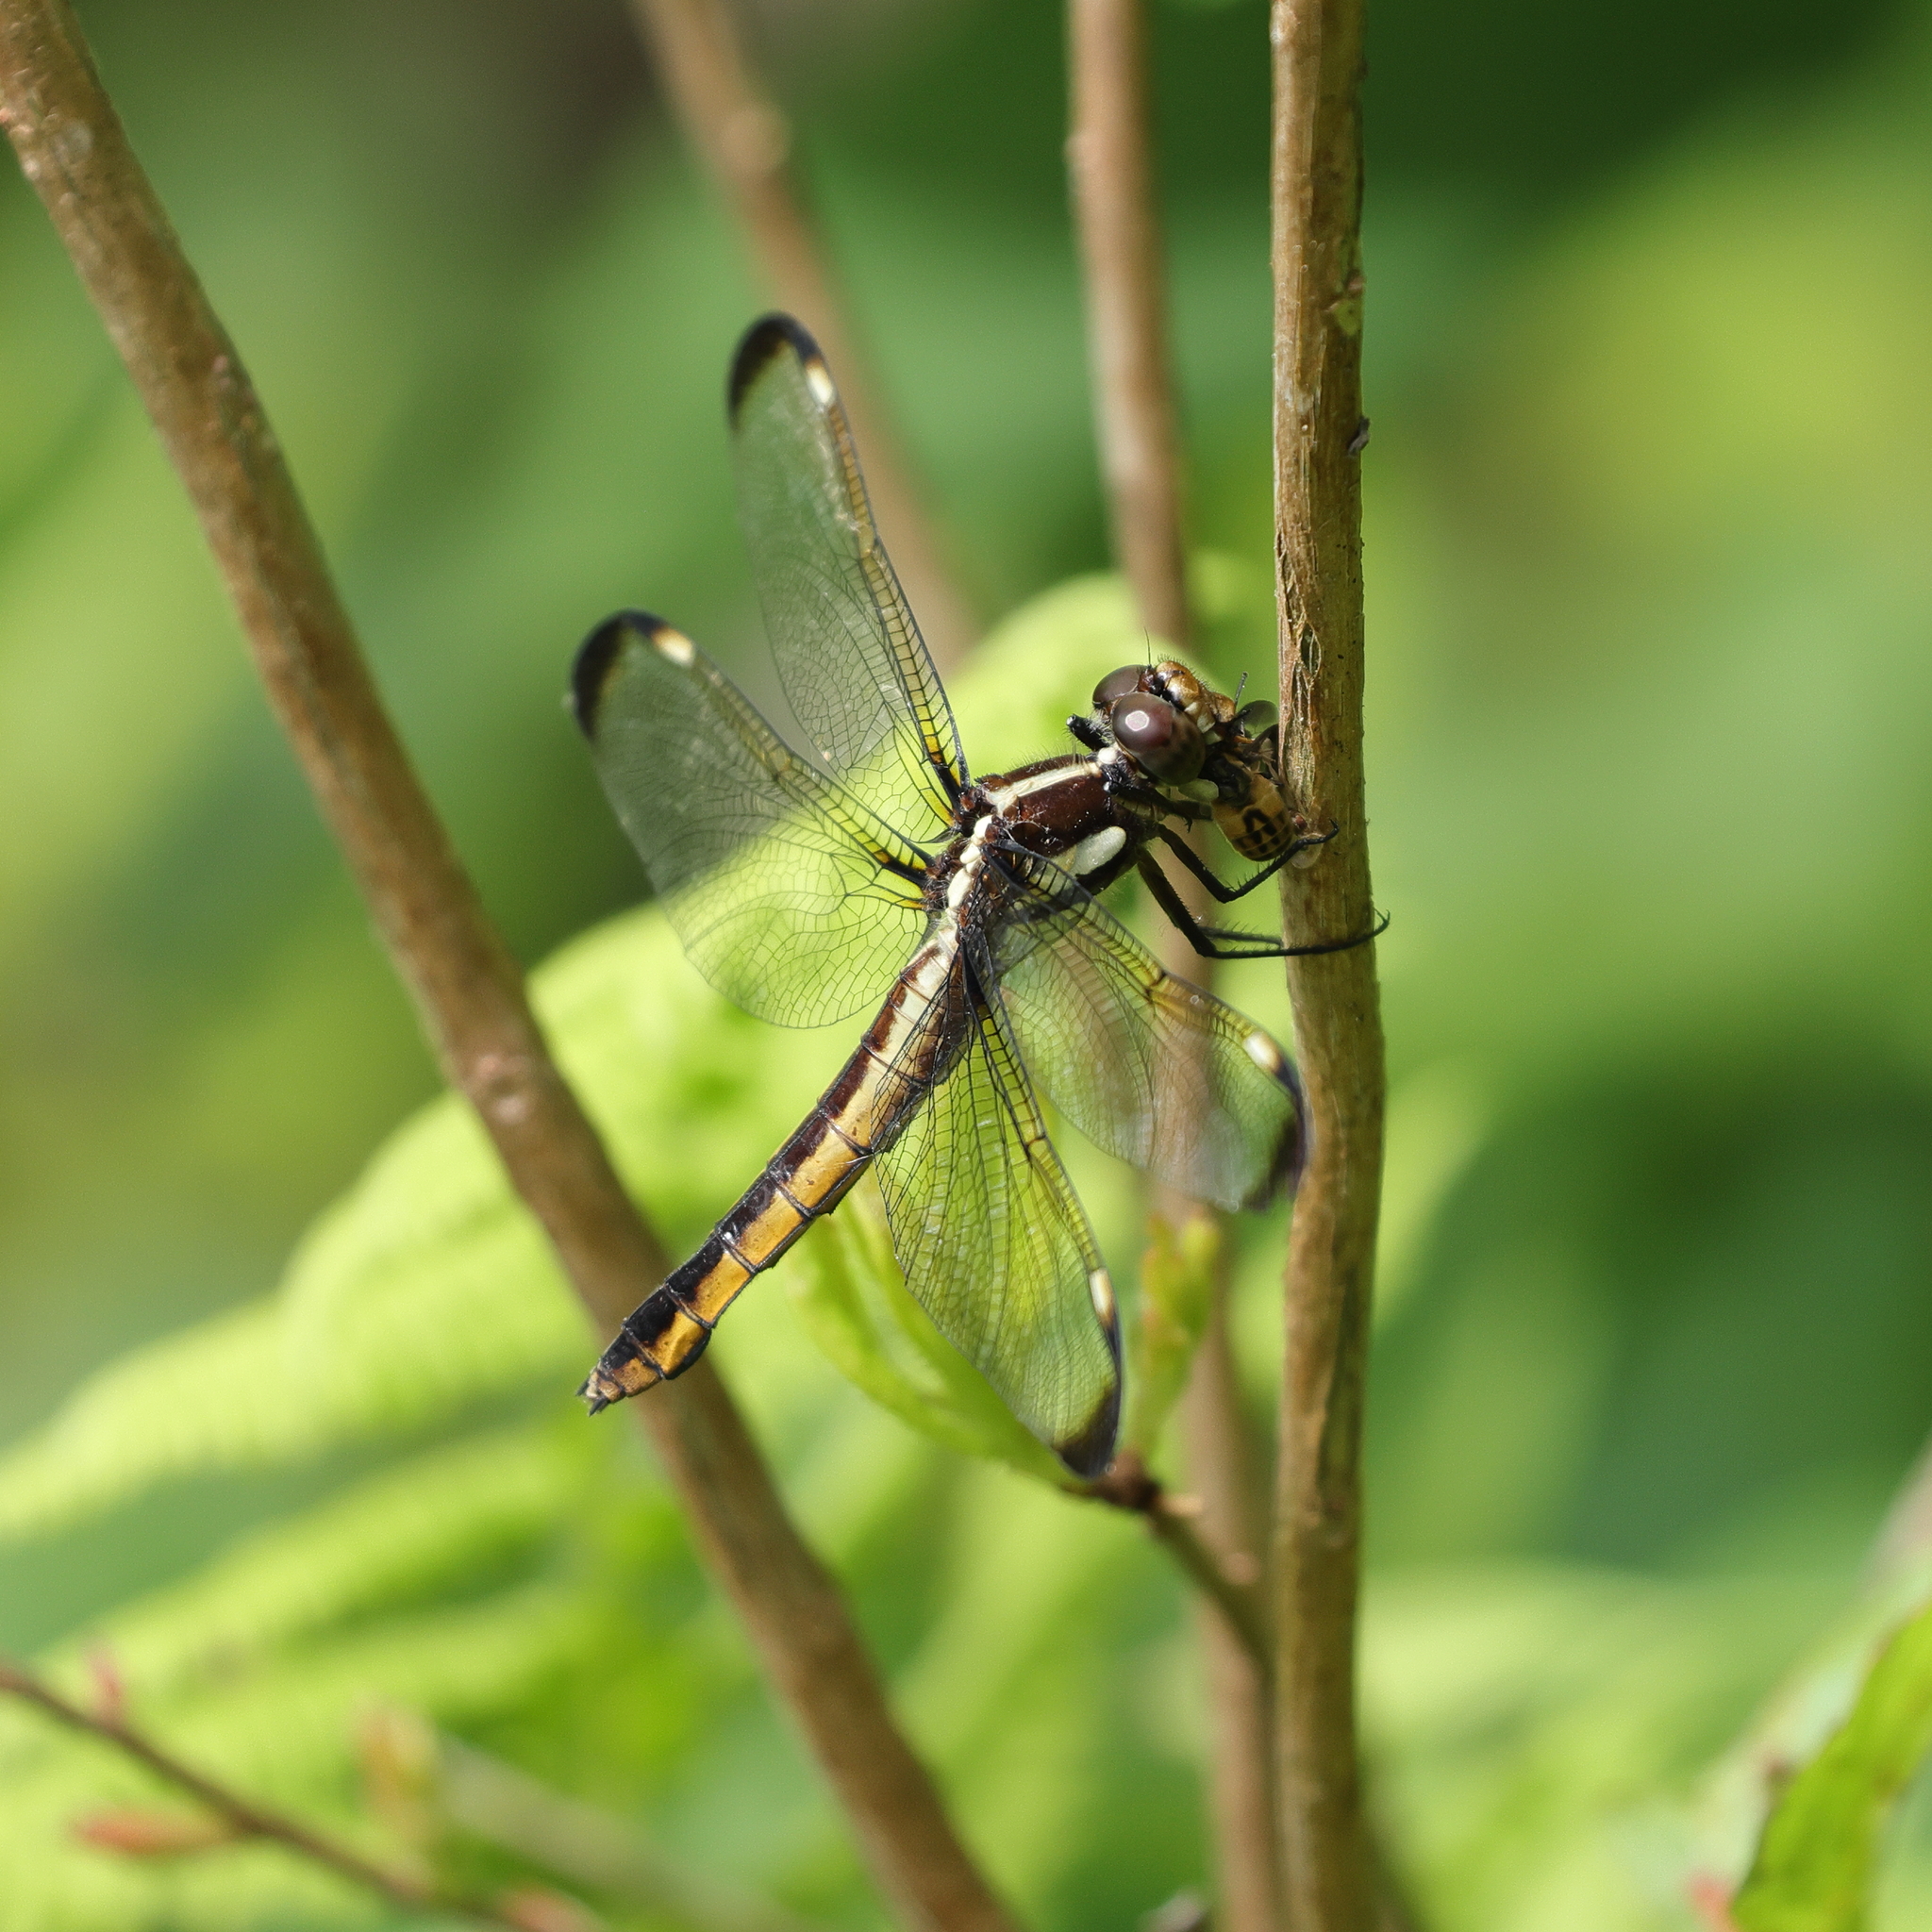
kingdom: Animalia
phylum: Arthropoda
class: Insecta
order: Odonata
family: Libellulidae
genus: Libellula
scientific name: Libellula cyanea
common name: Spangled skimmer
